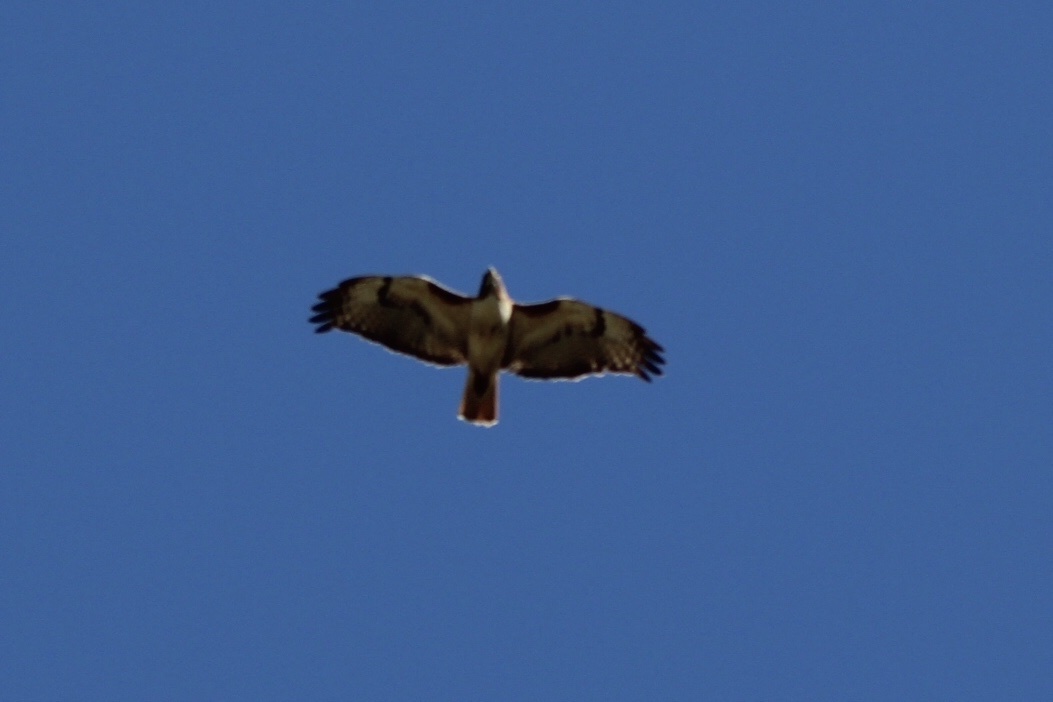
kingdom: Animalia
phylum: Chordata
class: Aves
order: Accipitriformes
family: Accipitridae
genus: Buteo
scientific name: Buteo jamaicensis
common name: Red-tailed hawk
